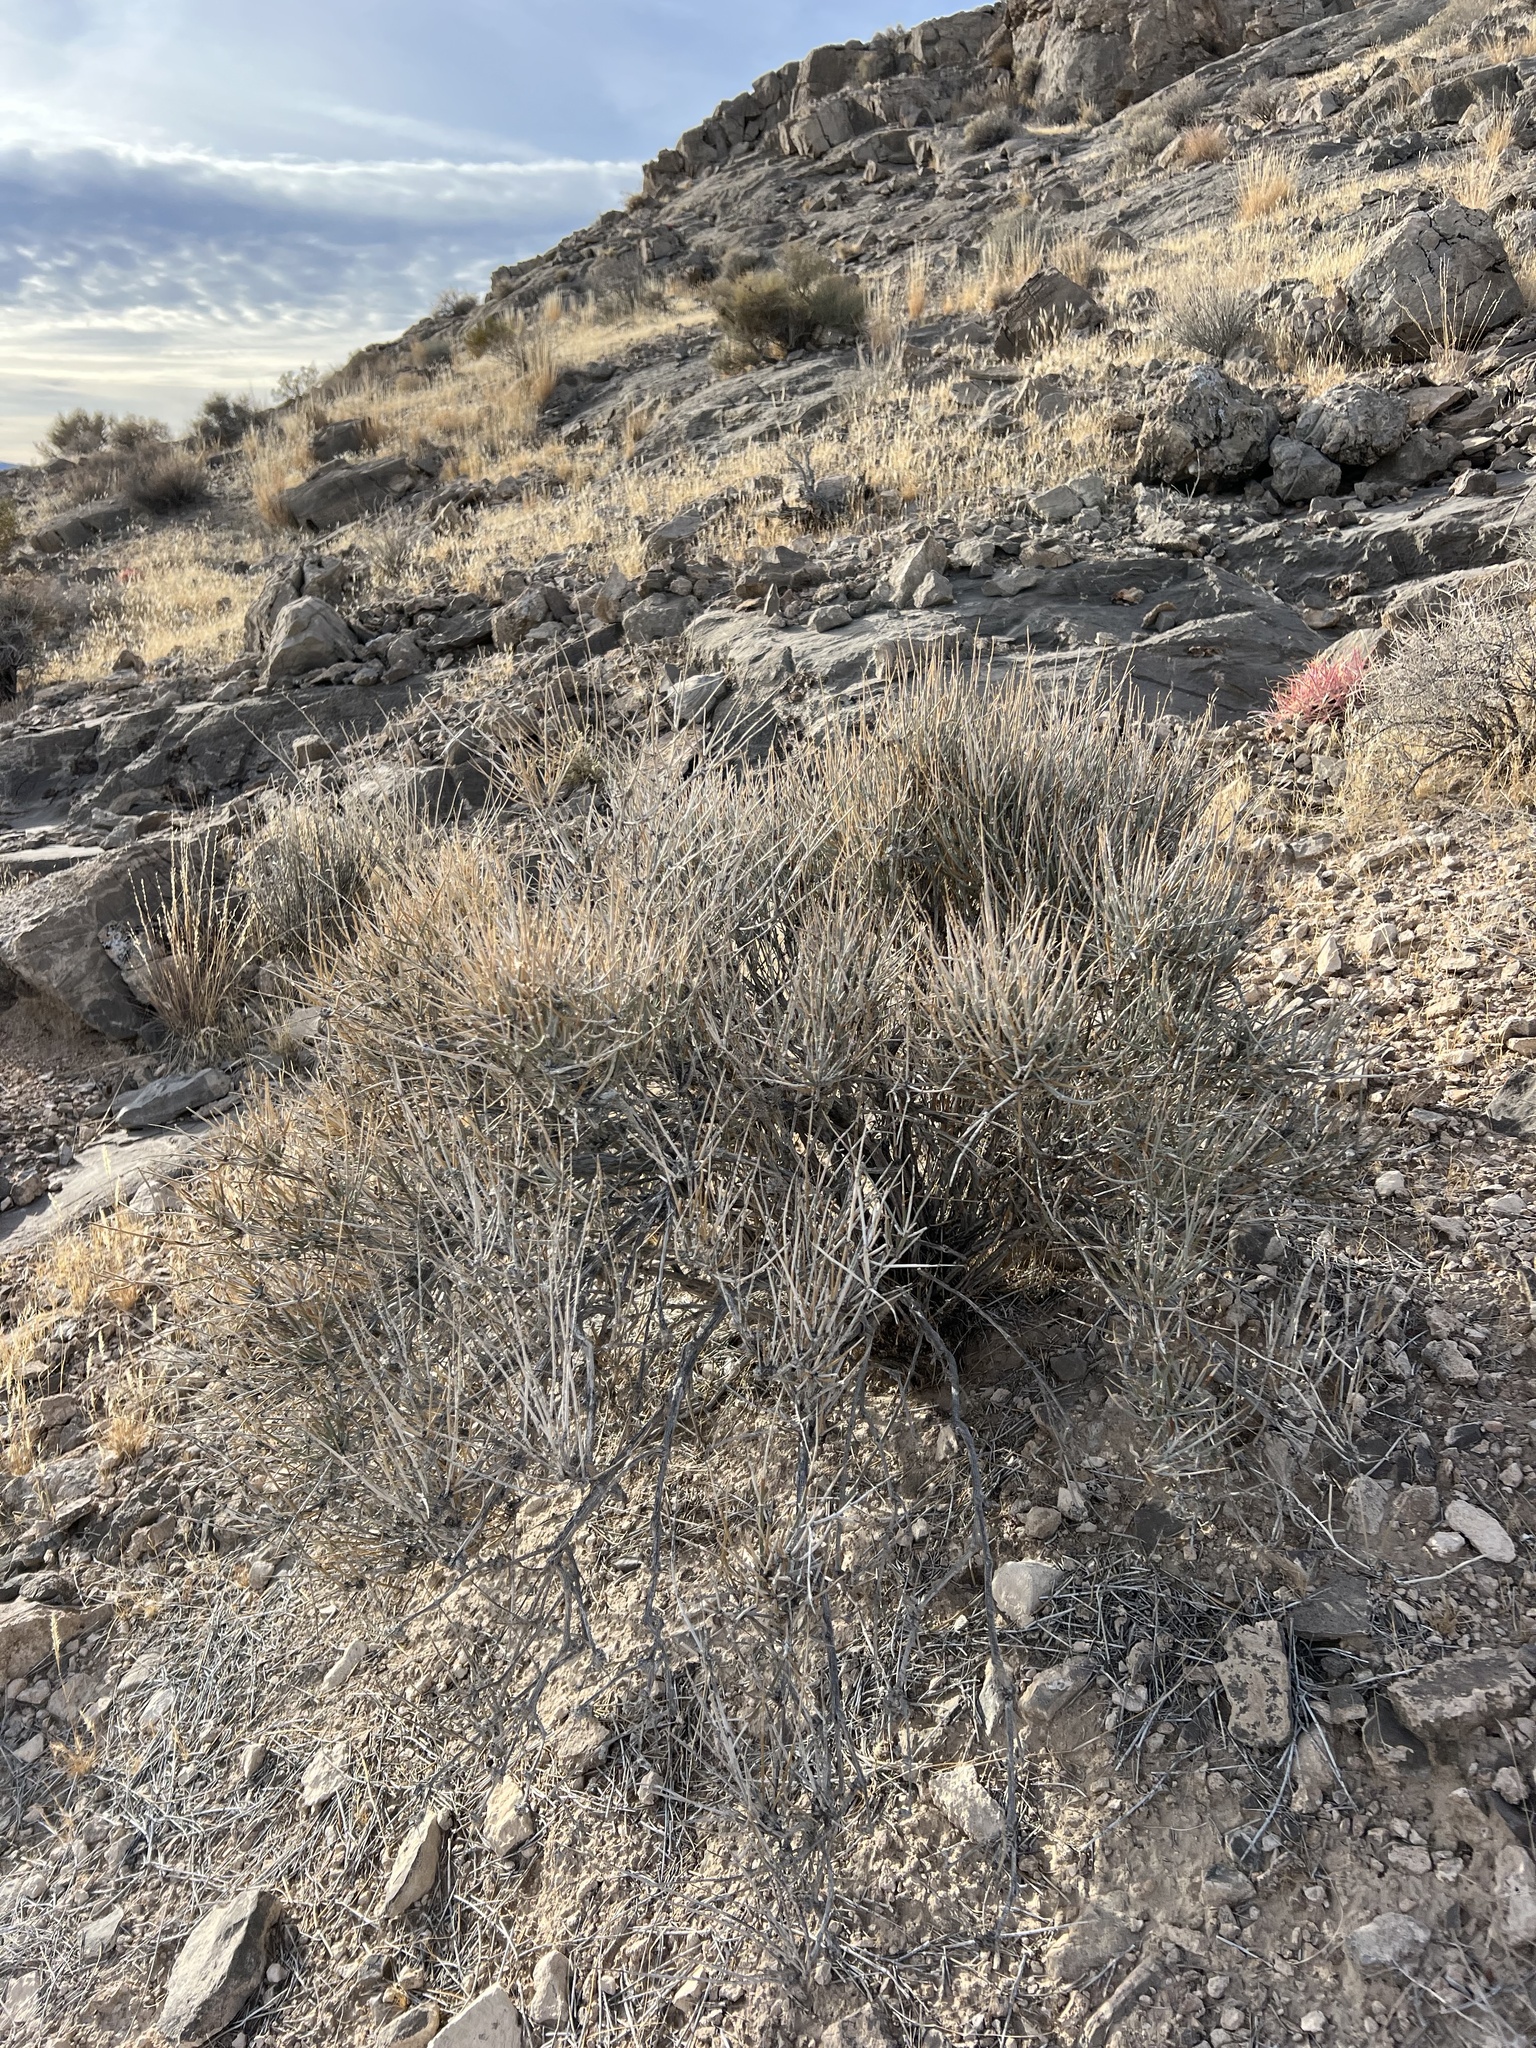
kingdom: Plantae
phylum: Tracheophyta
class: Gnetopsida
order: Ephedrales
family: Ephedraceae
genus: Ephedra
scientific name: Ephedra nevadensis
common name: Gray ephedra
